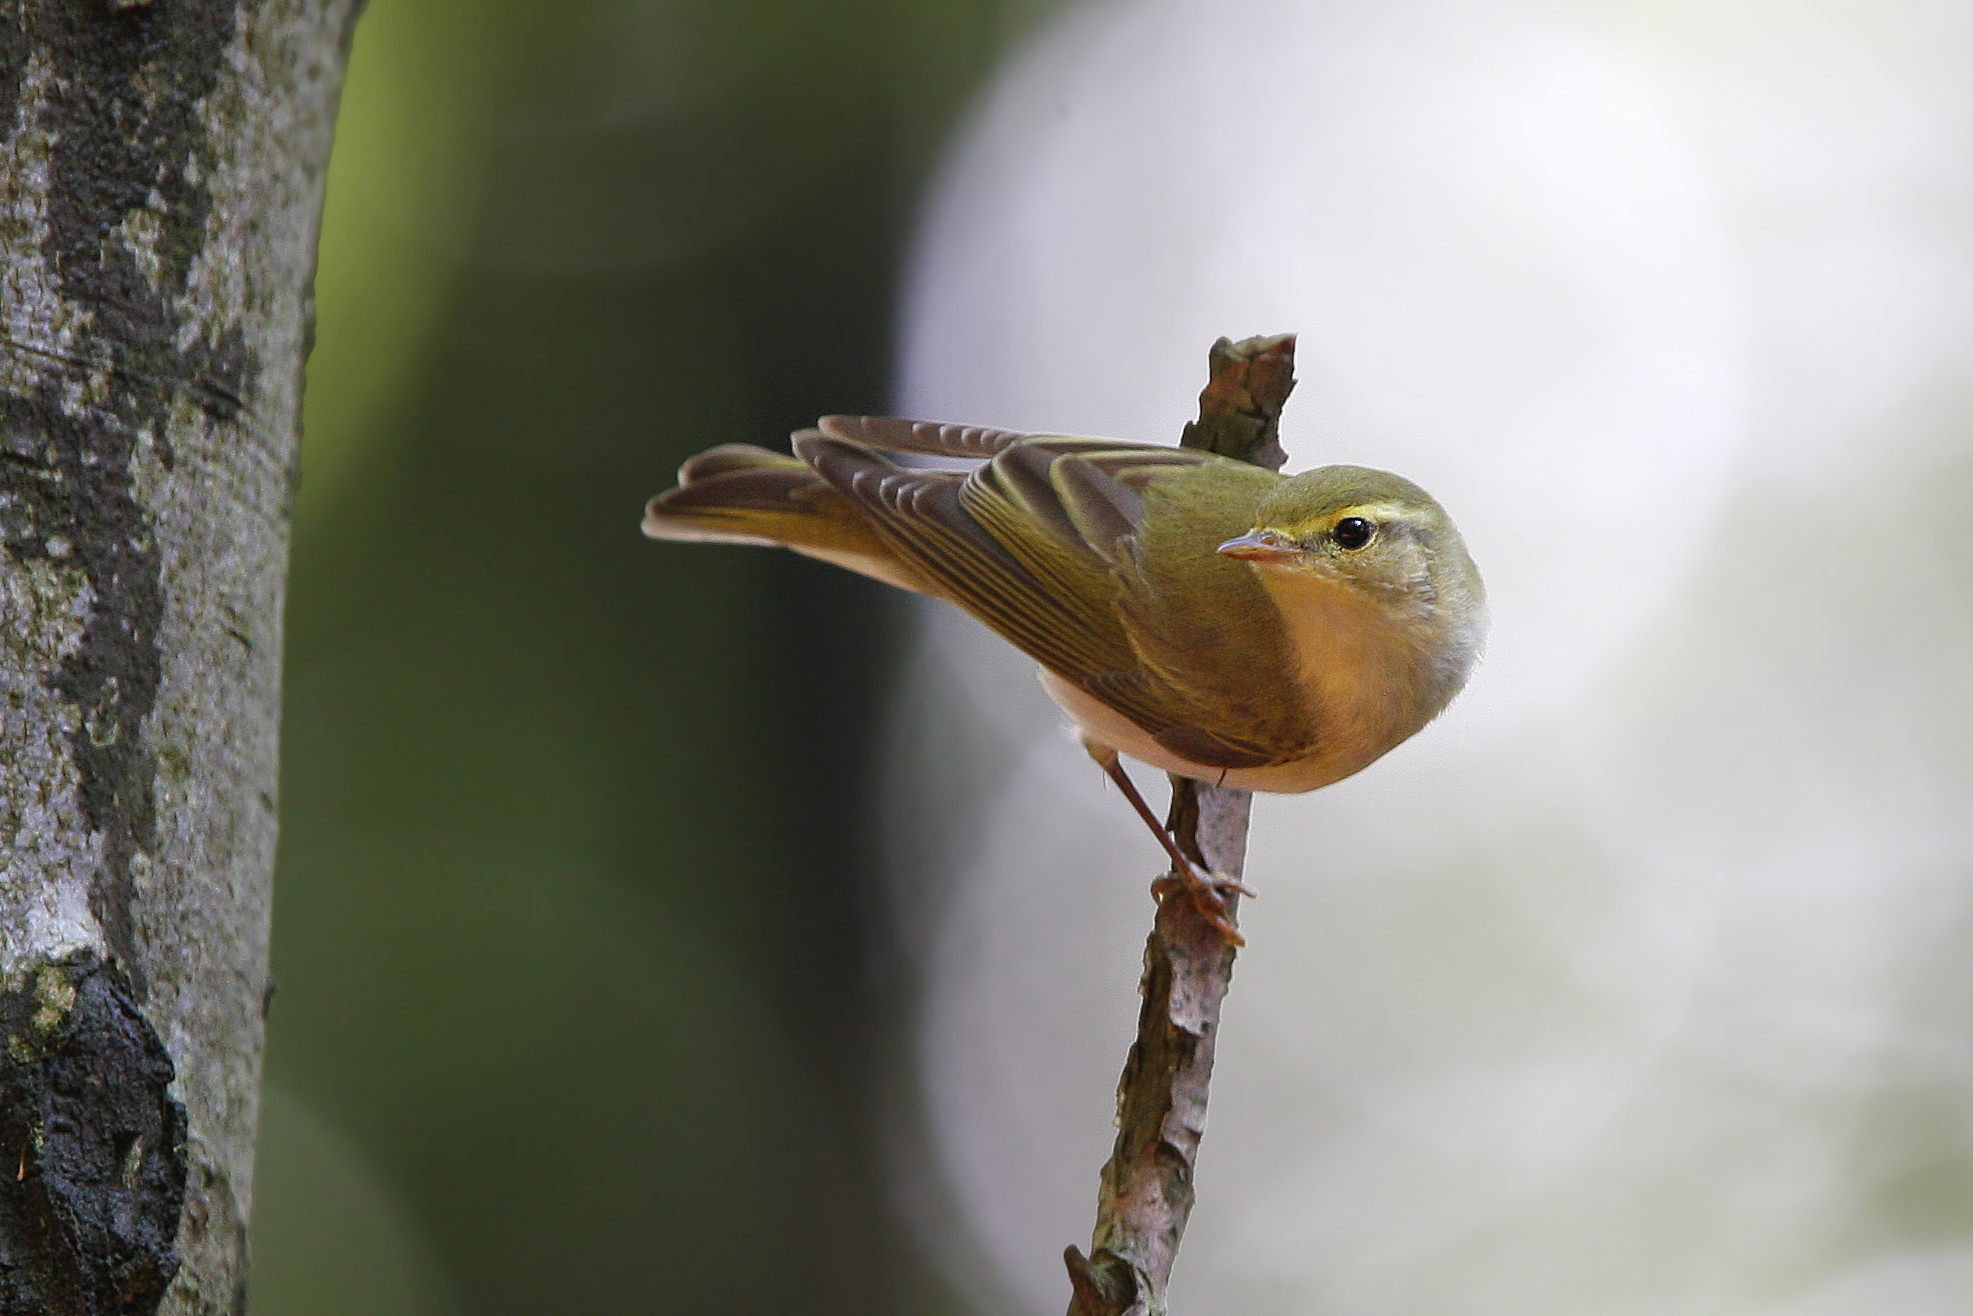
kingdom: Animalia
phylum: Chordata
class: Aves
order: Passeriformes
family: Phylloscopidae
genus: Phylloscopus
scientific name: Phylloscopus sibillatrix
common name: Wood warbler
